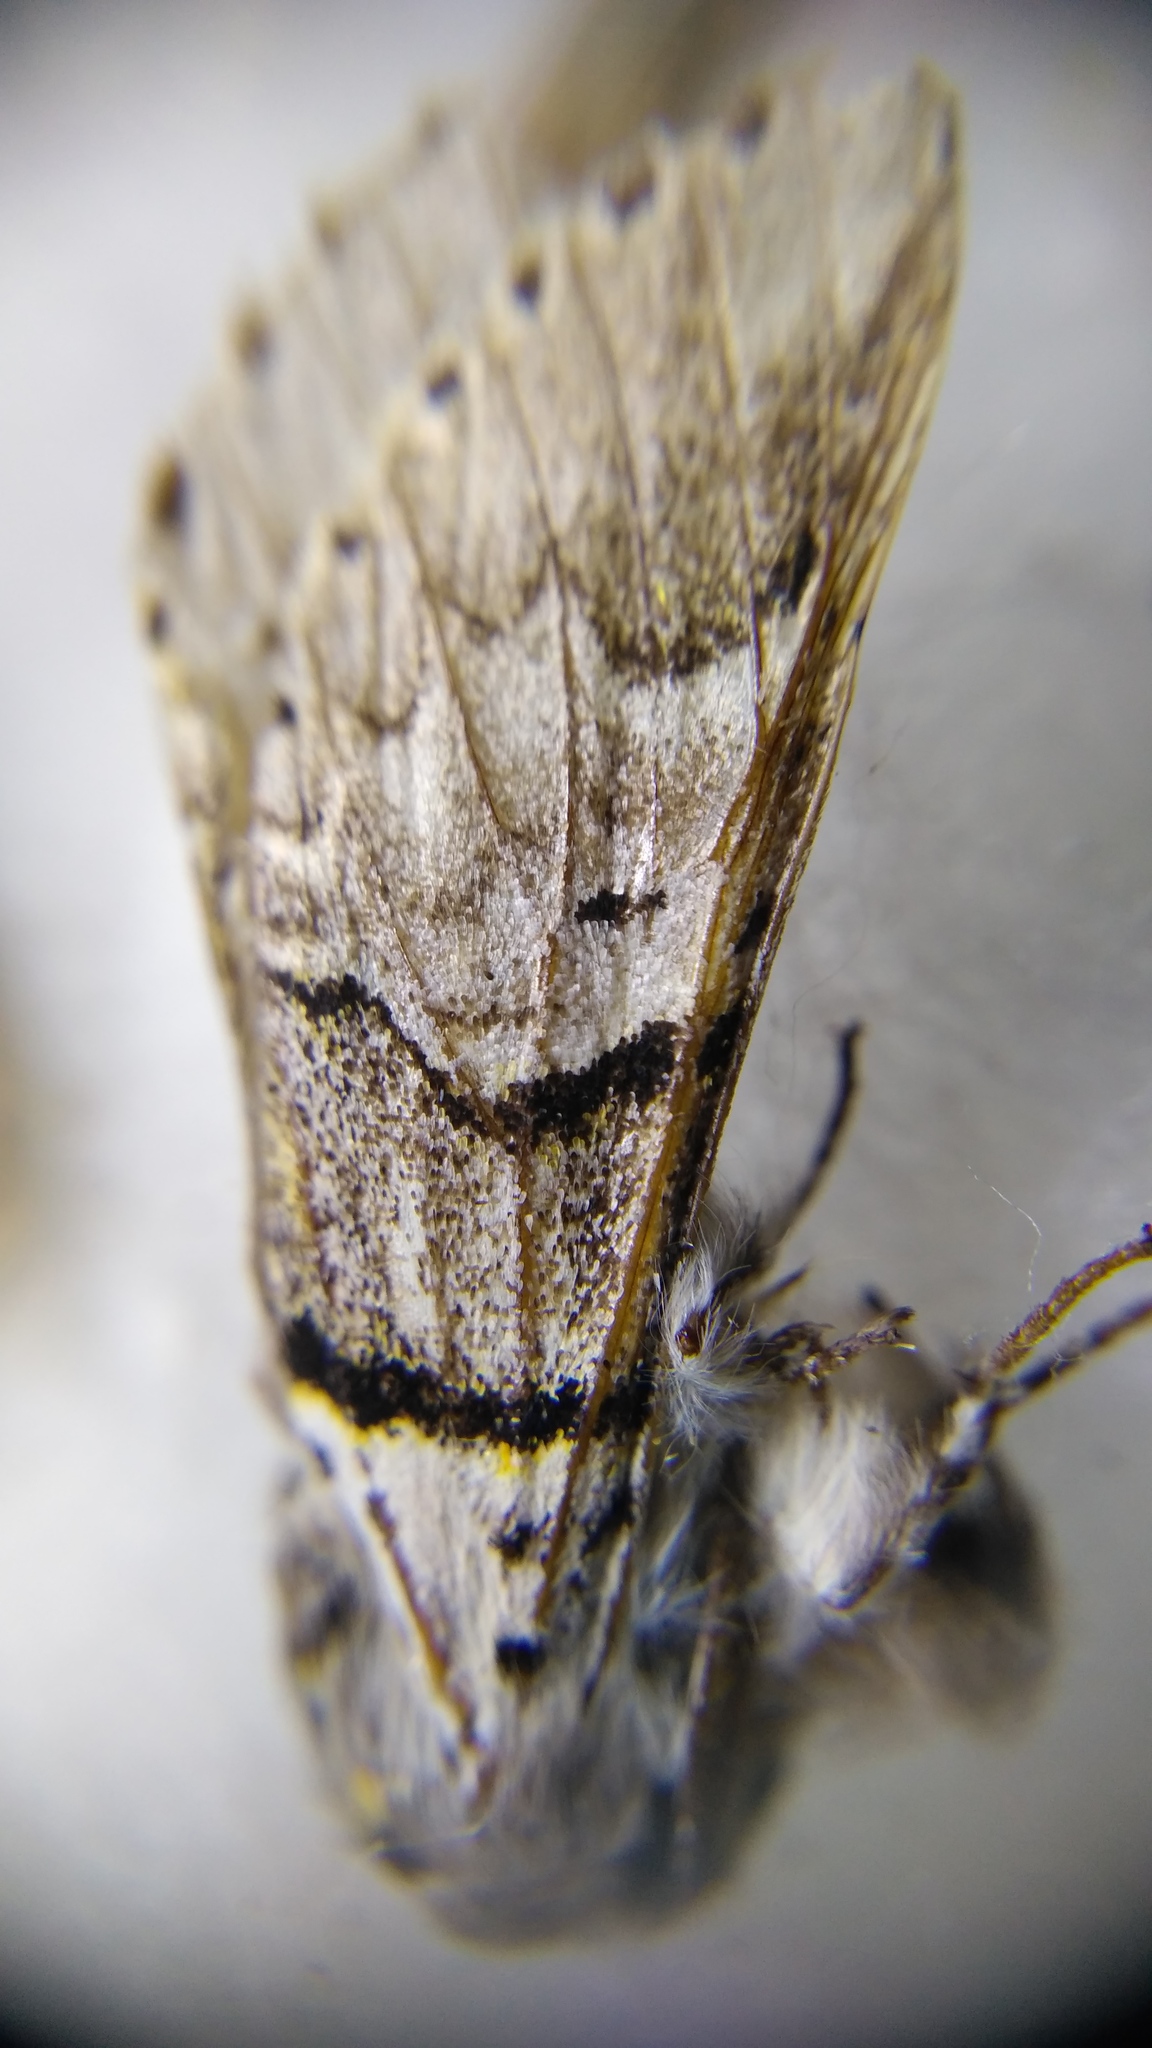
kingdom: Animalia
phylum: Arthropoda
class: Insecta
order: Lepidoptera
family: Notodontidae
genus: Furcula
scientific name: Furcula bifida
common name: Poplar kitten
